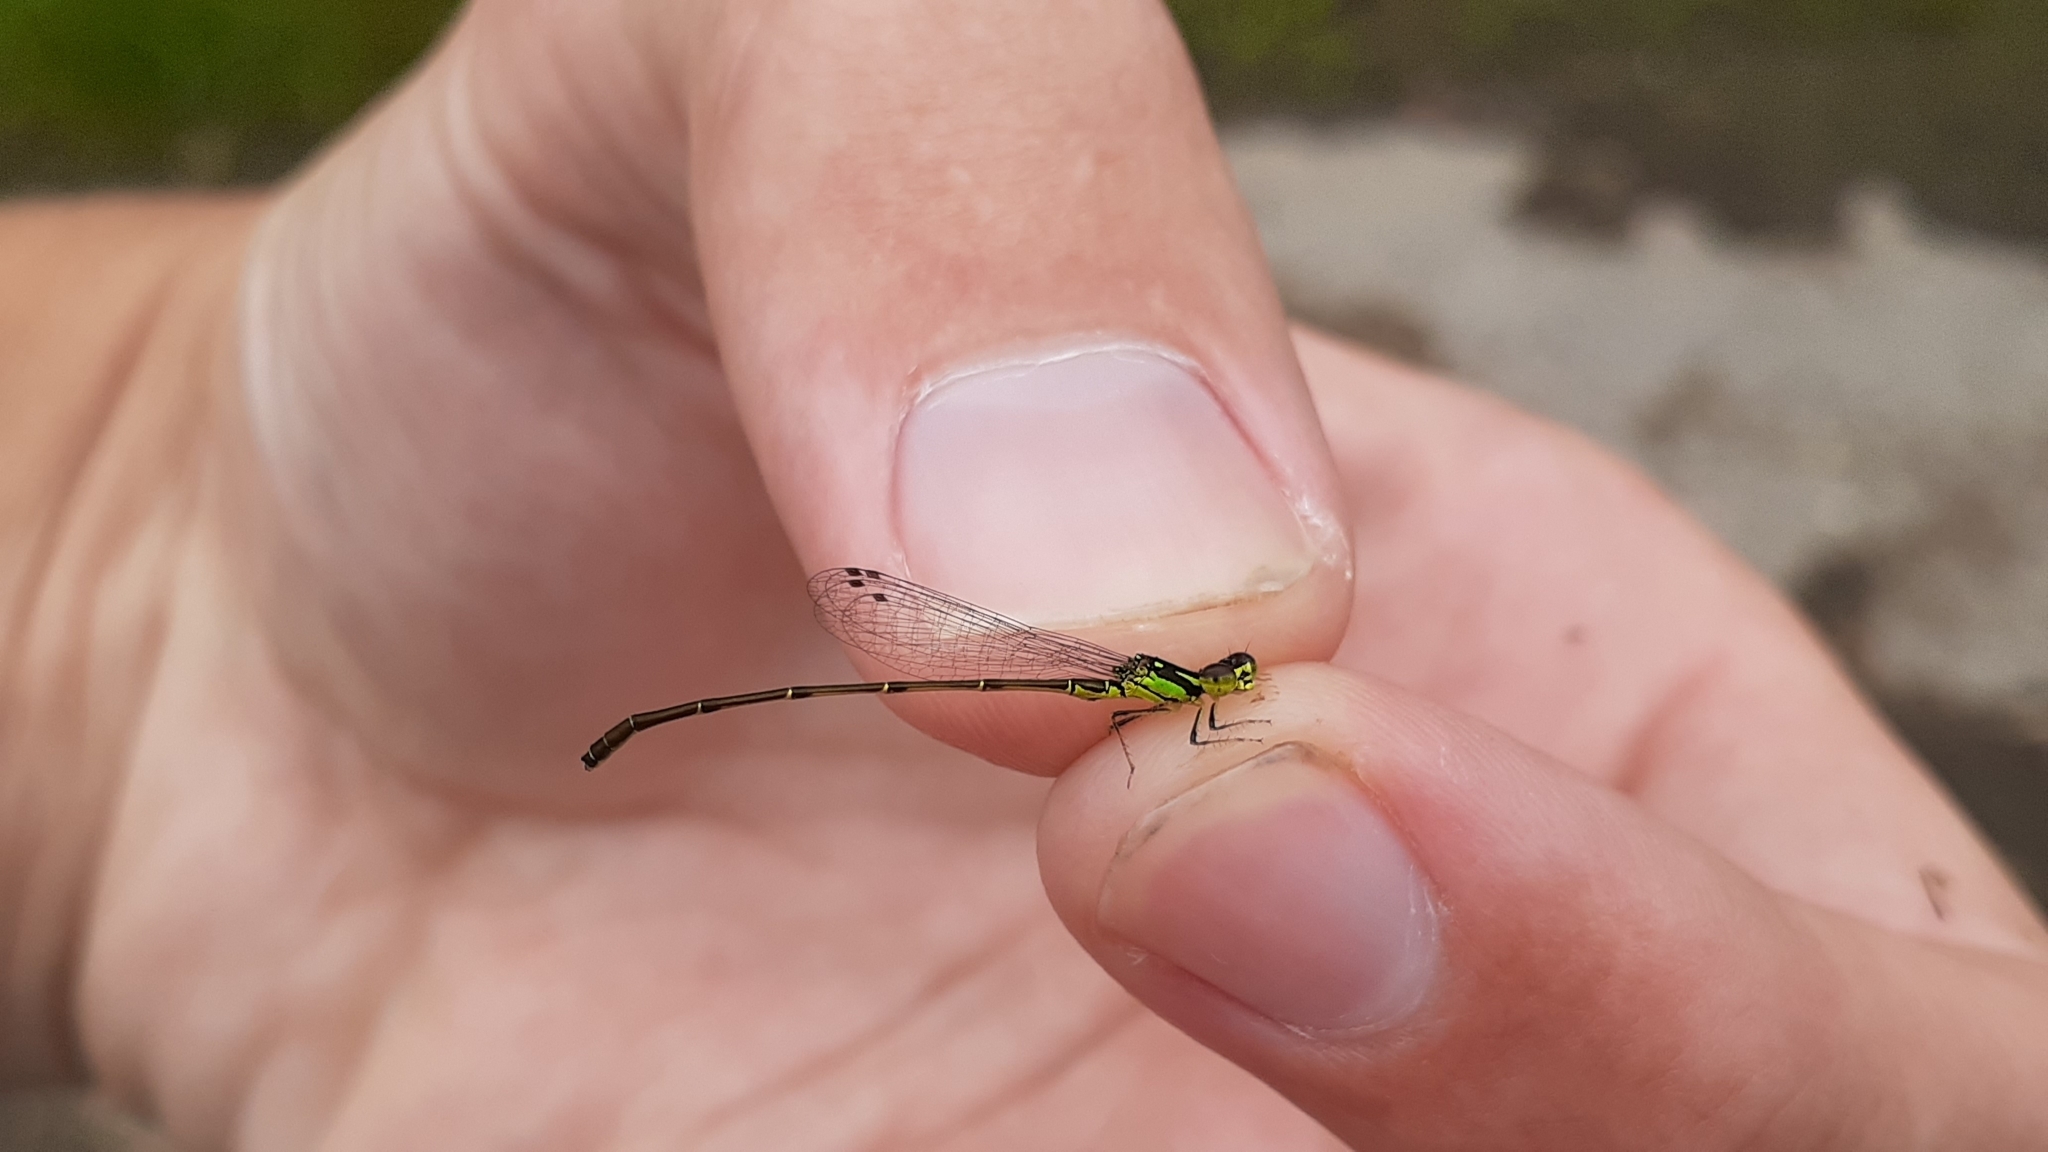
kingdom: Animalia
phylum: Arthropoda
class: Insecta
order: Odonata
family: Coenagrionidae
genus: Ischnura
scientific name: Ischnura posita
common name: Fragile forktail
